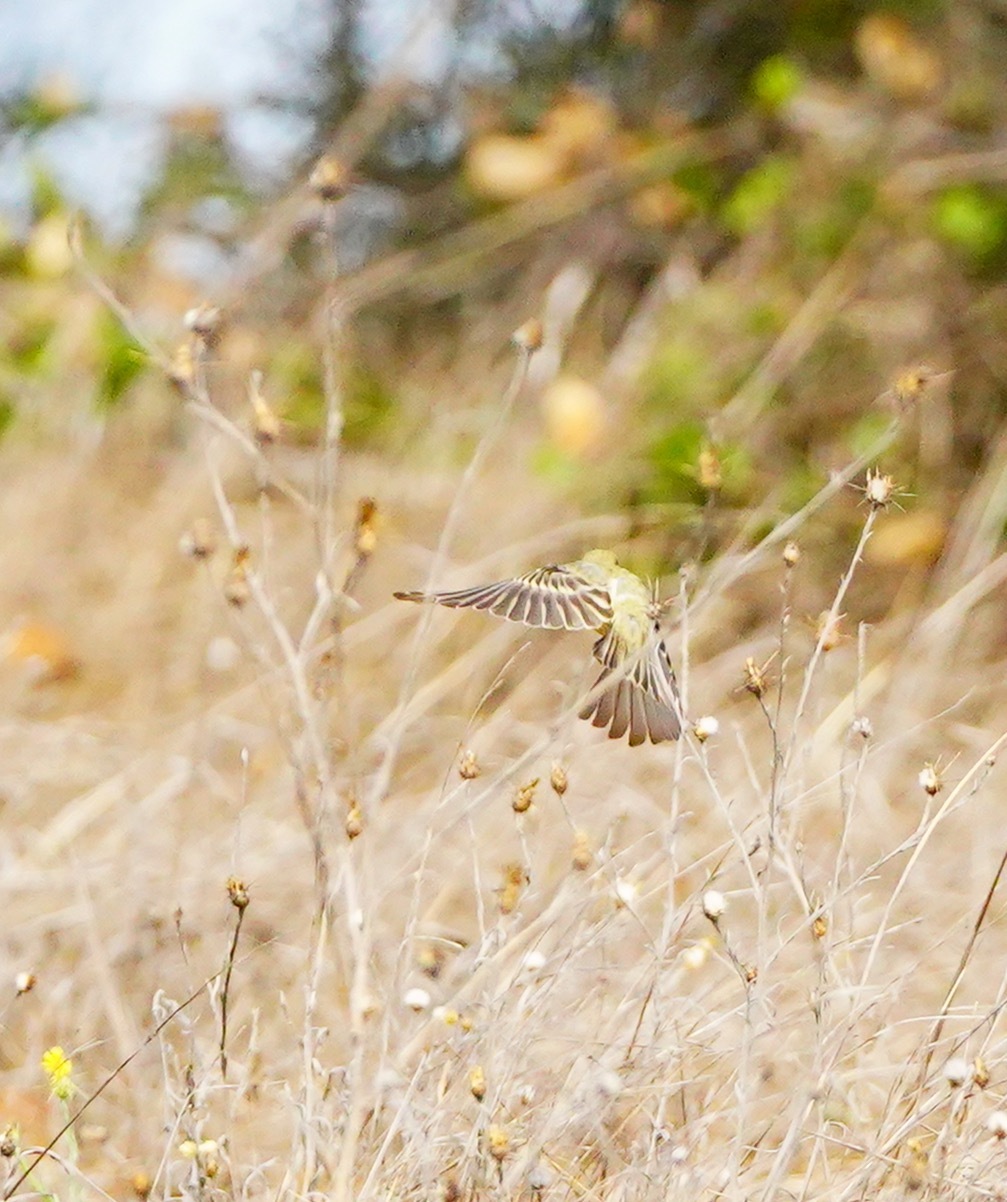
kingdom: Animalia
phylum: Chordata
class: Aves
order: Passeriformes
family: Fringillidae
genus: Spinus
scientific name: Spinus psaltria
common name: Lesser goldfinch
